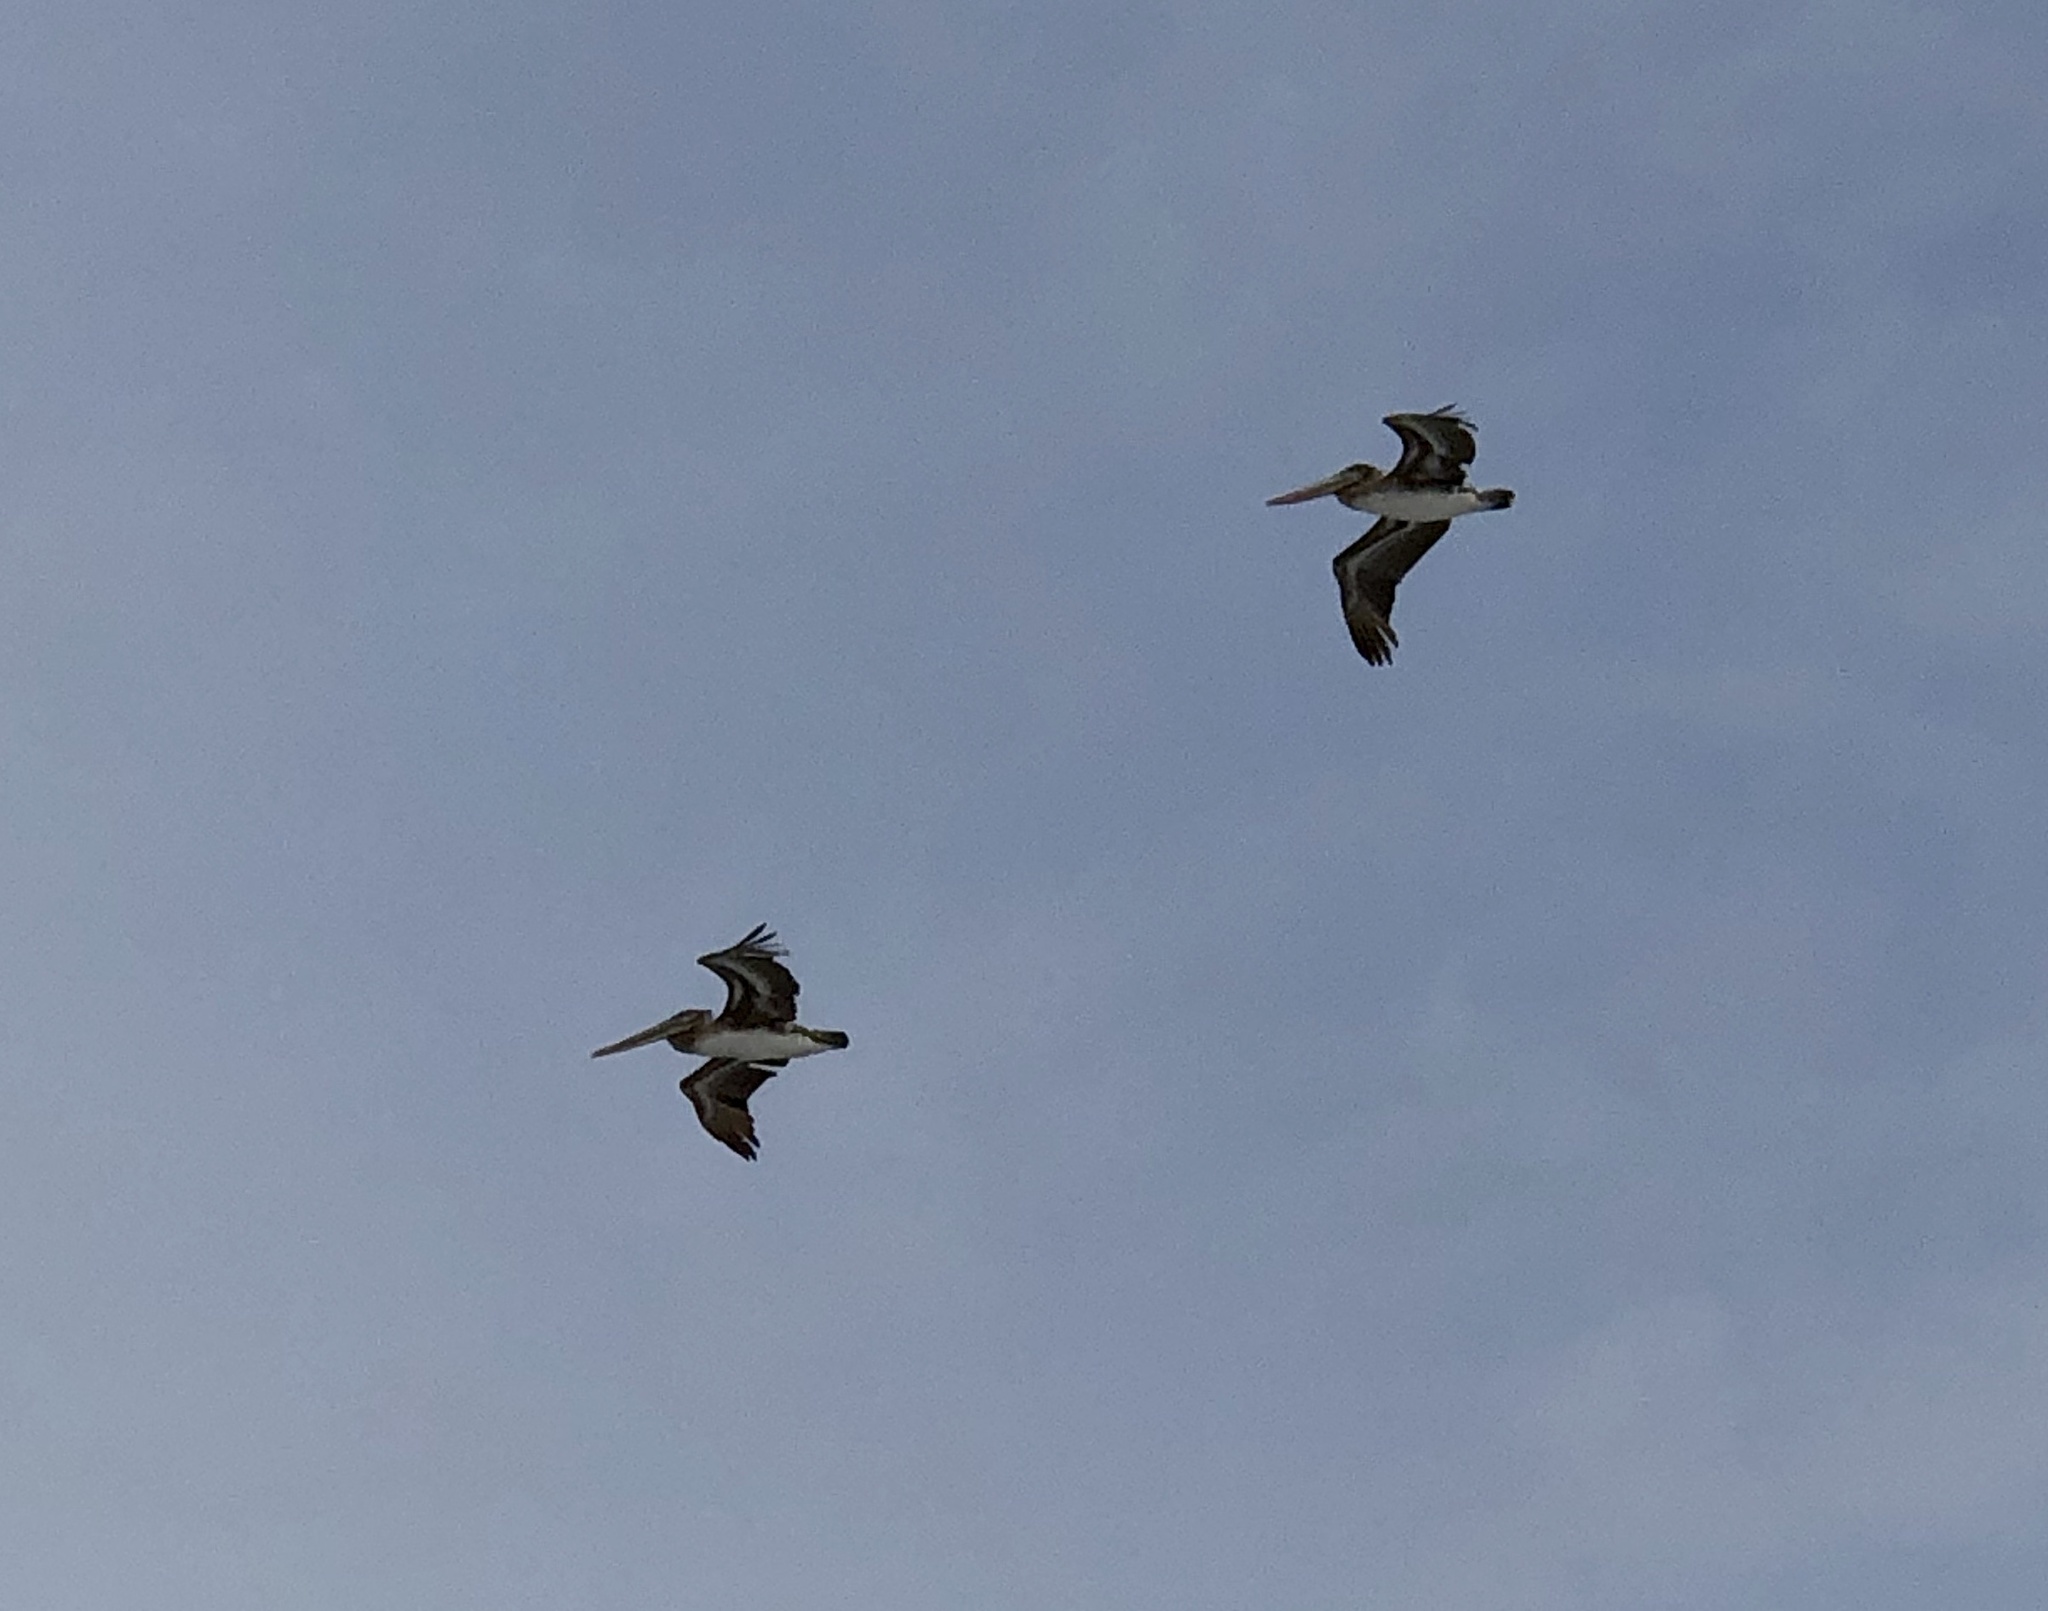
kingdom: Animalia
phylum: Chordata
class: Aves
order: Pelecaniformes
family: Pelecanidae
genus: Pelecanus
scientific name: Pelecanus occidentalis
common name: Brown pelican
